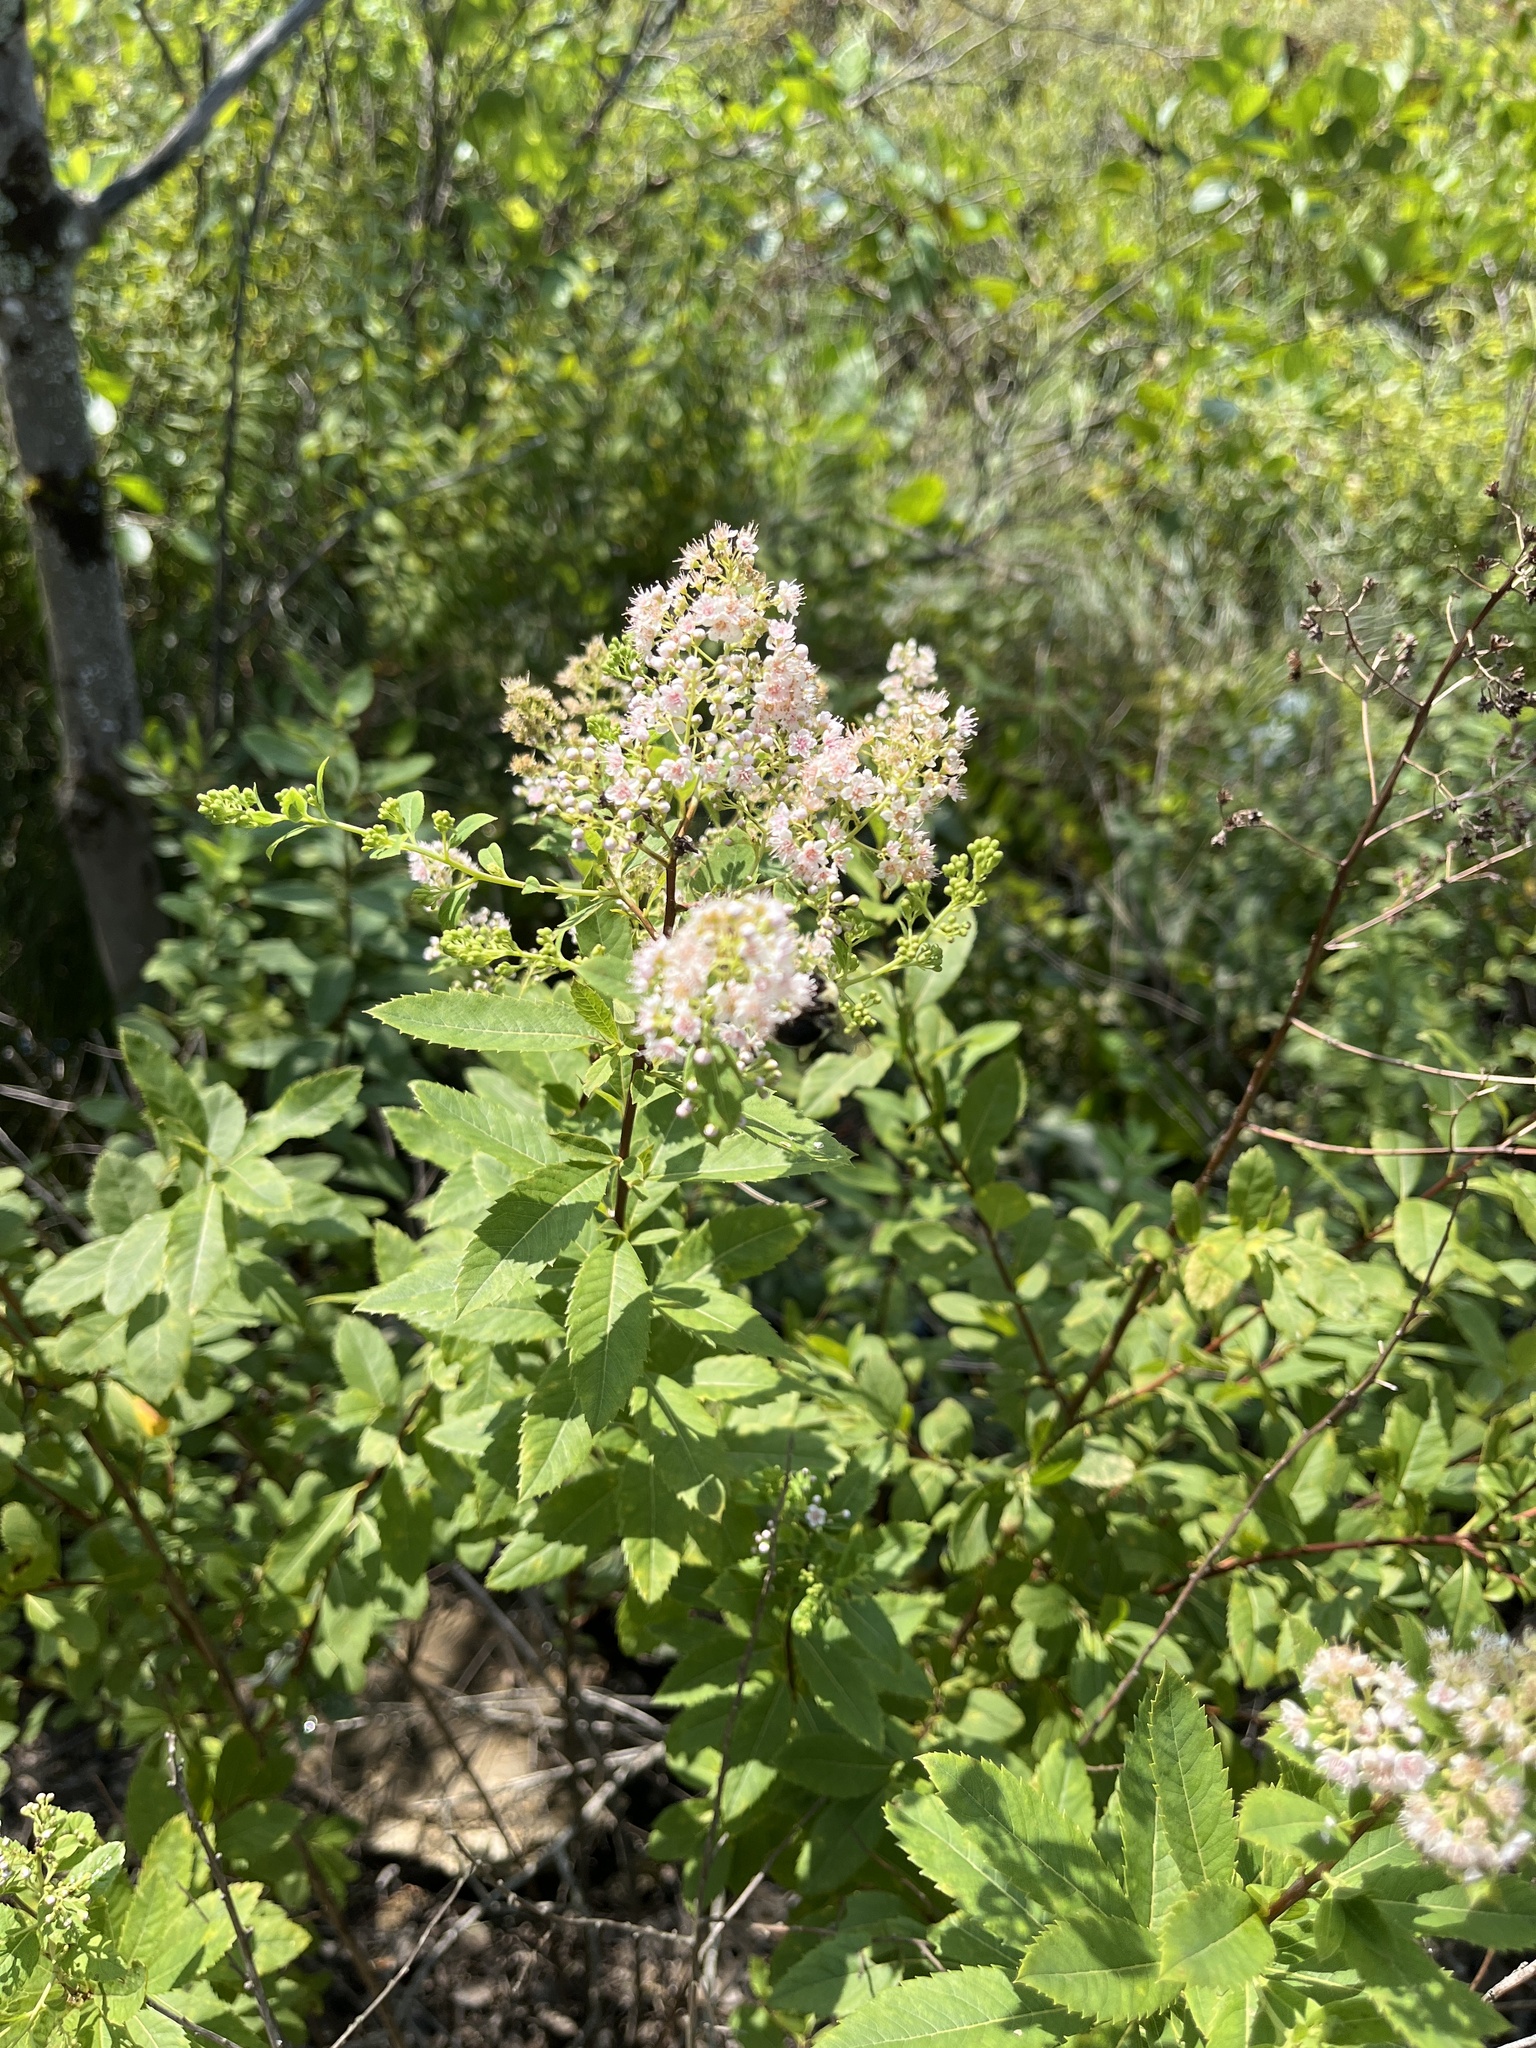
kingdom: Plantae
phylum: Tracheophyta
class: Magnoliopsida
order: Rosales
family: Rosaceae
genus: Spiraea
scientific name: Spiraea alba
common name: Pale bridewort
